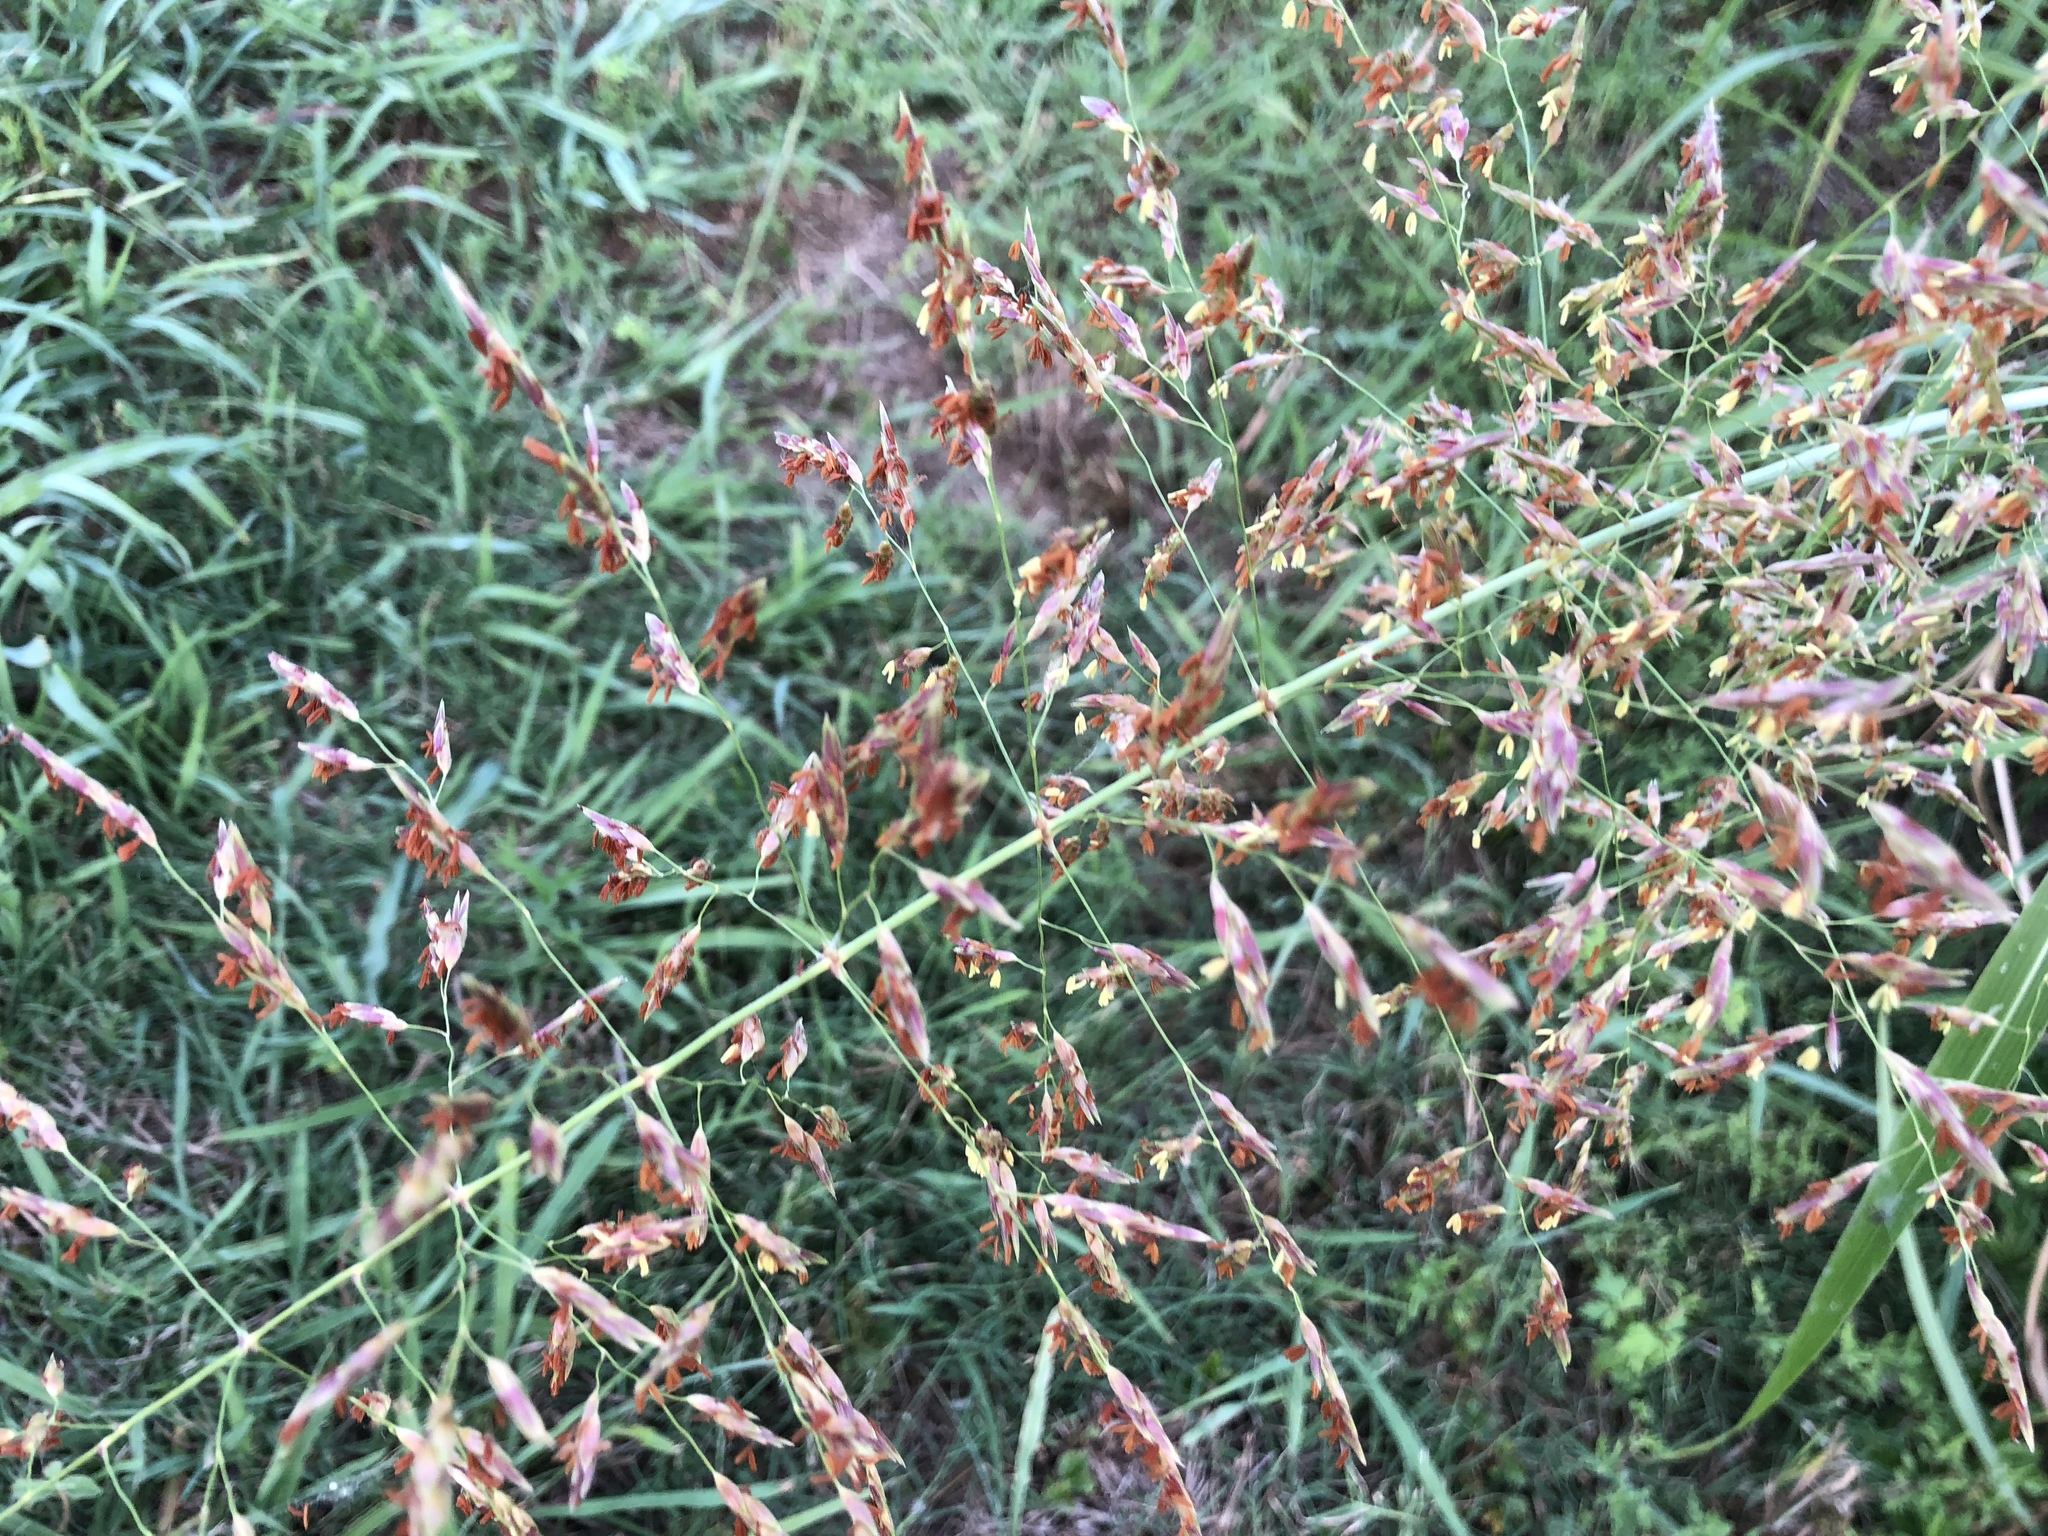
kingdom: Plantae
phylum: Tracheophyta
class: Liliopsida
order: Poales
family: Poaceae
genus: Sorghum
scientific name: Sorghum halepense
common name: Johnson-grass
